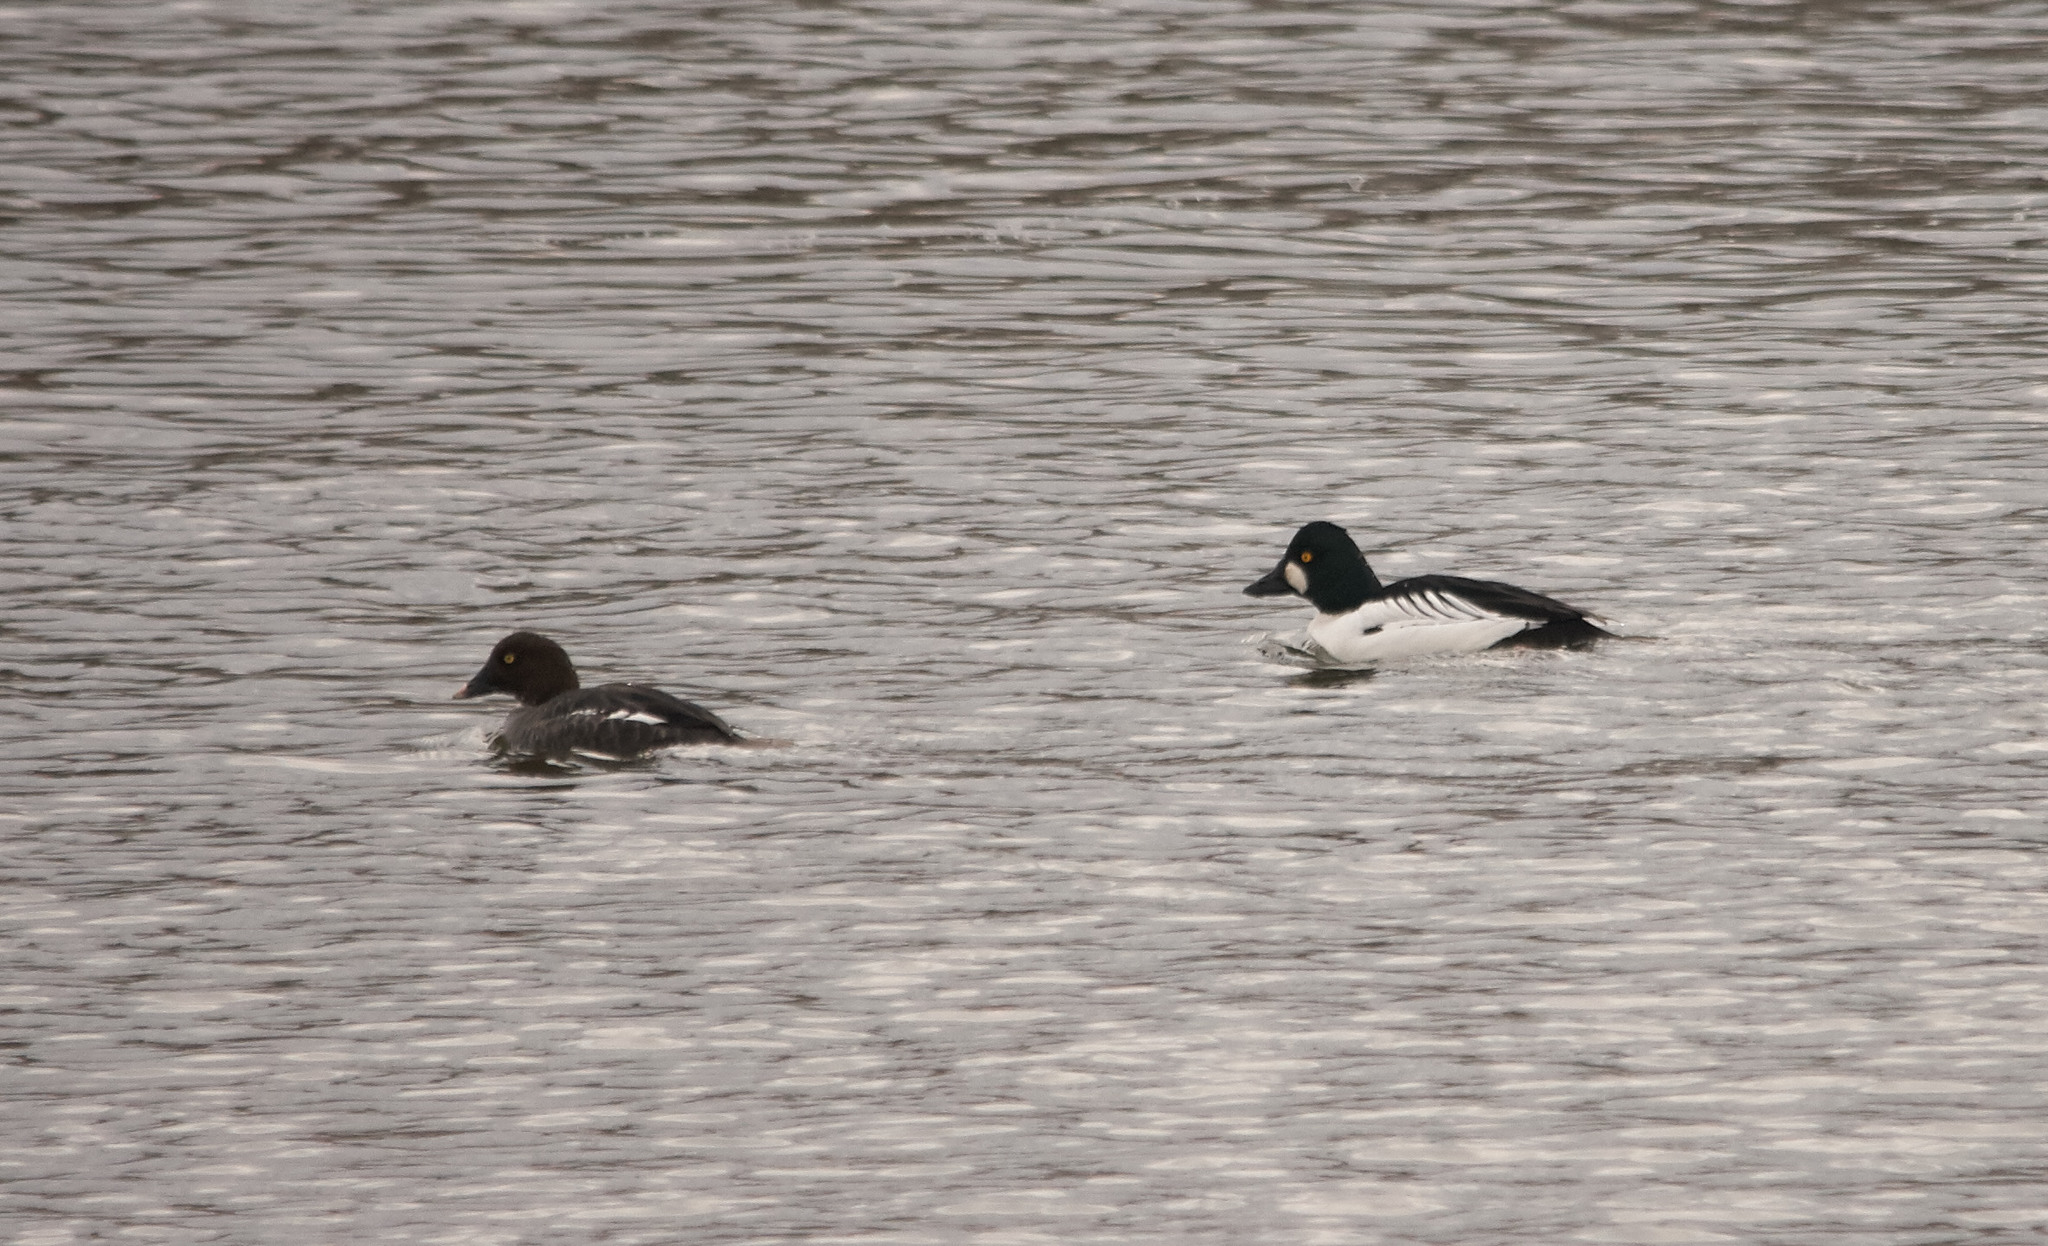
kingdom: Animalia
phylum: Chordata
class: Aves
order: Anseriformes
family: Anatidae
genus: Bucephala
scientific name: Bucephala clangula
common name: Common goldeneye
